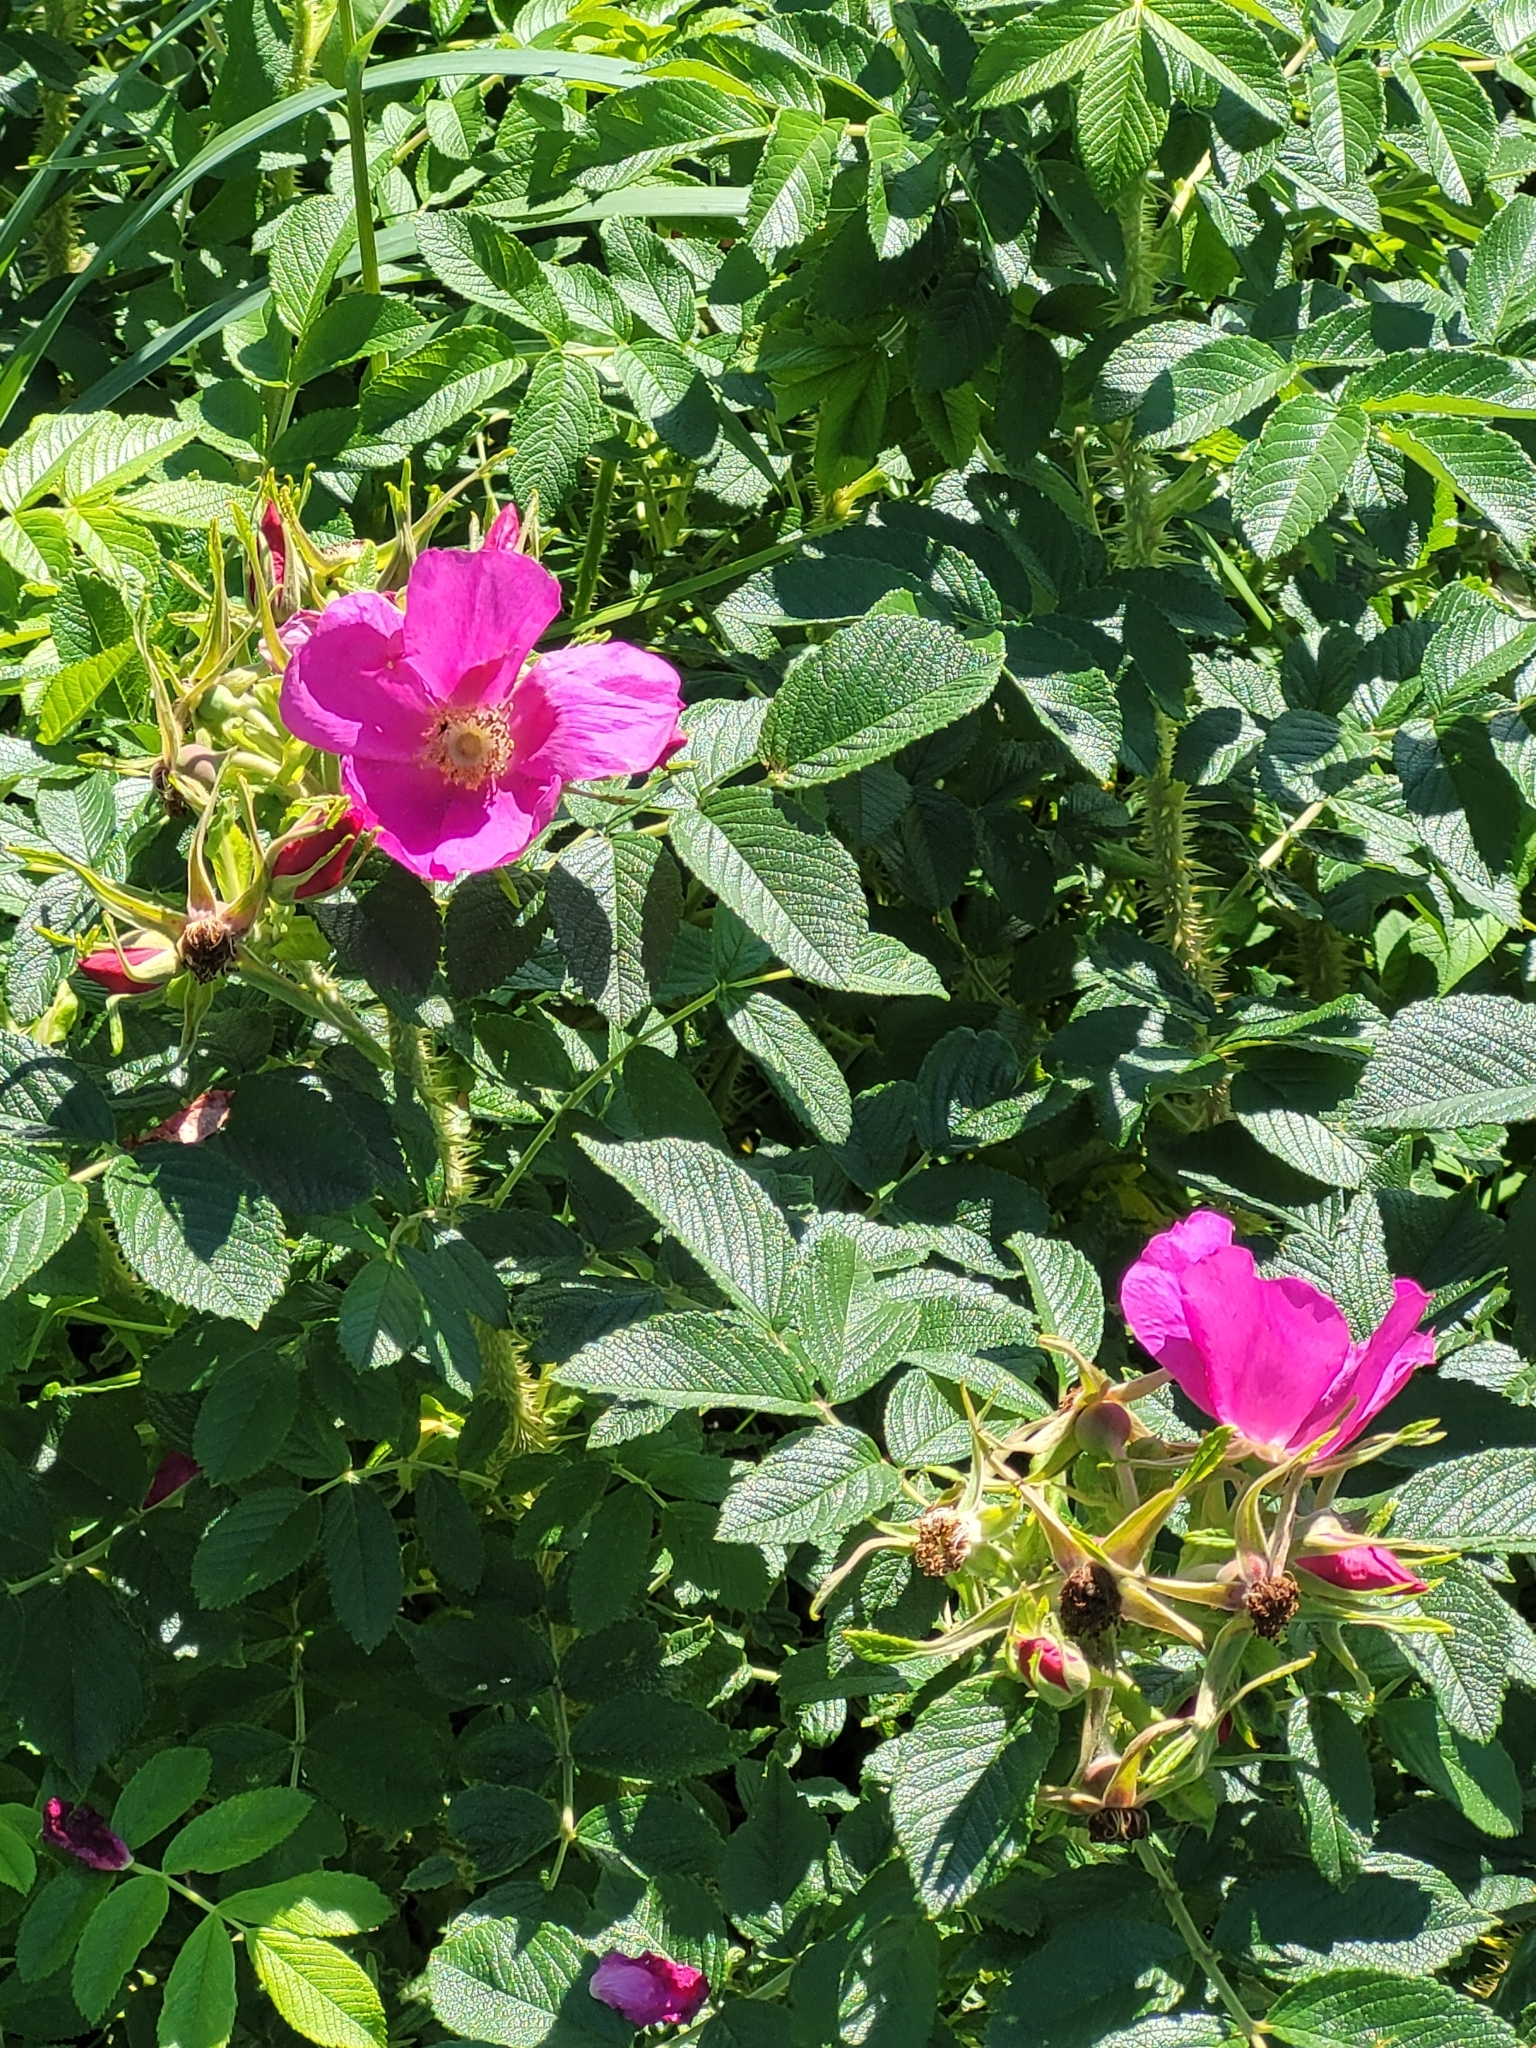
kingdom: Plantae
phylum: Tracheophyta
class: Magnoliopsida
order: Rosales
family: Rosaceae
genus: Rosa
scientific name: Rosa rugosa
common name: Japanese rose
